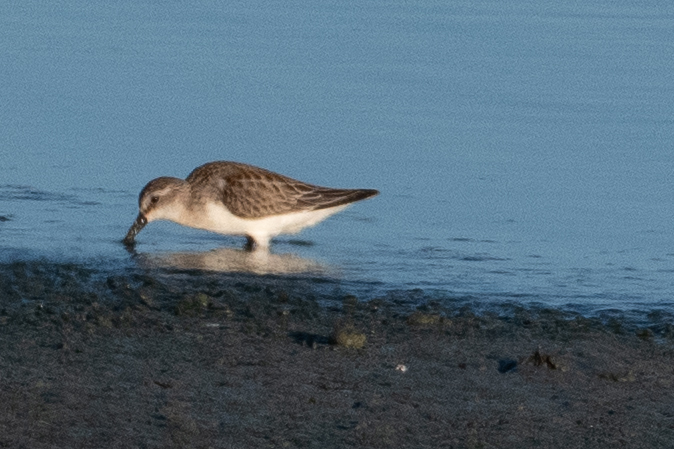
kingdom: Animalia
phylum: Chordata
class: Aves
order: Charadriiformes
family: Scolopacidae
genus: Calidris
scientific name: Calidris mauri
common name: Western sandpiper
